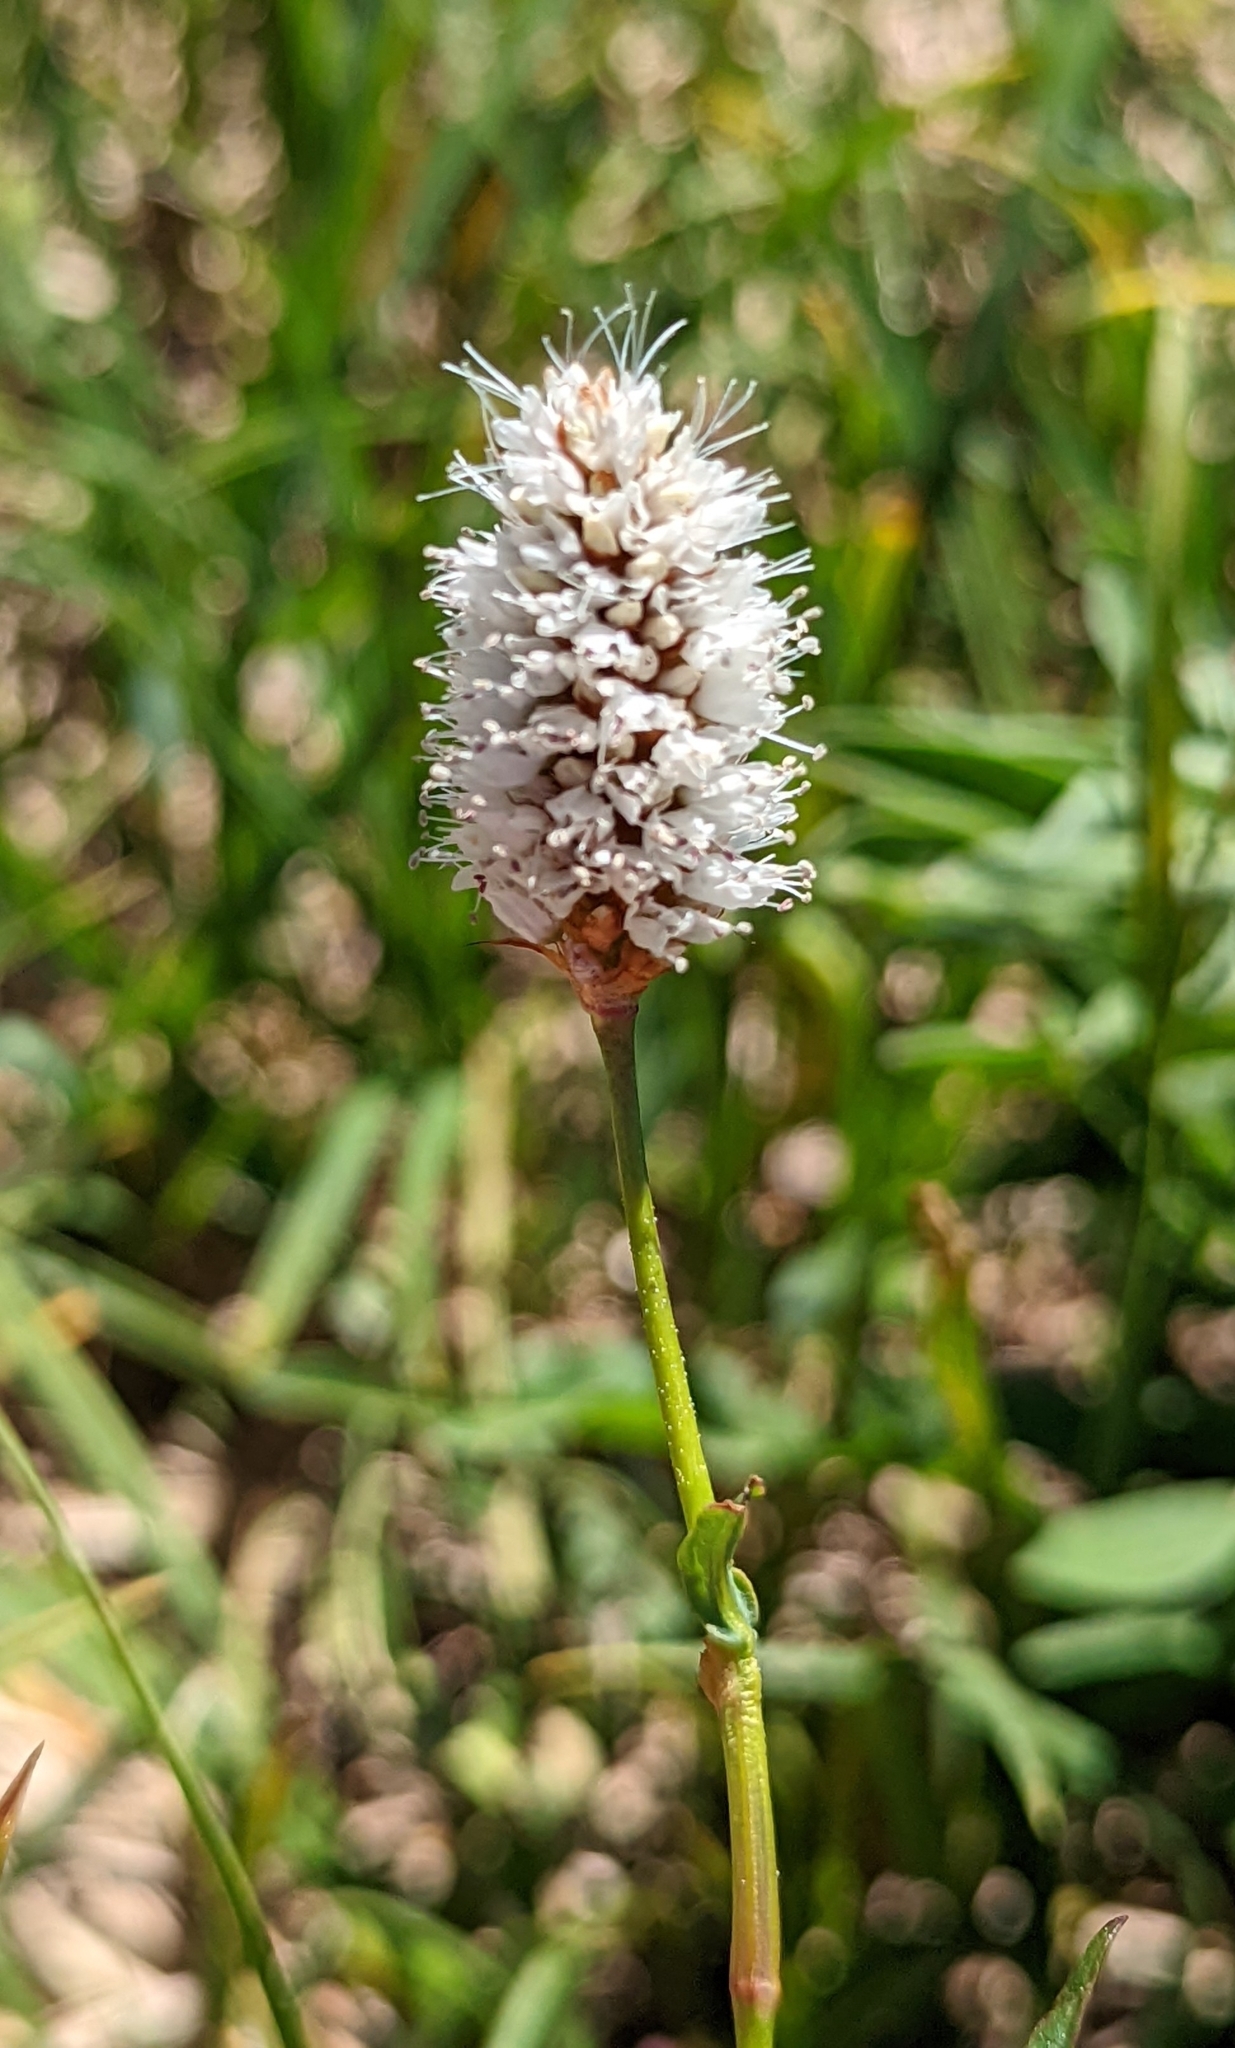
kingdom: Plantae
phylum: Tracheophyta
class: Magnoliopsida
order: Caryophyllales
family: Polygonaceae
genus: Bistorta
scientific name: Bistorta bistortoides
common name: American bistort
